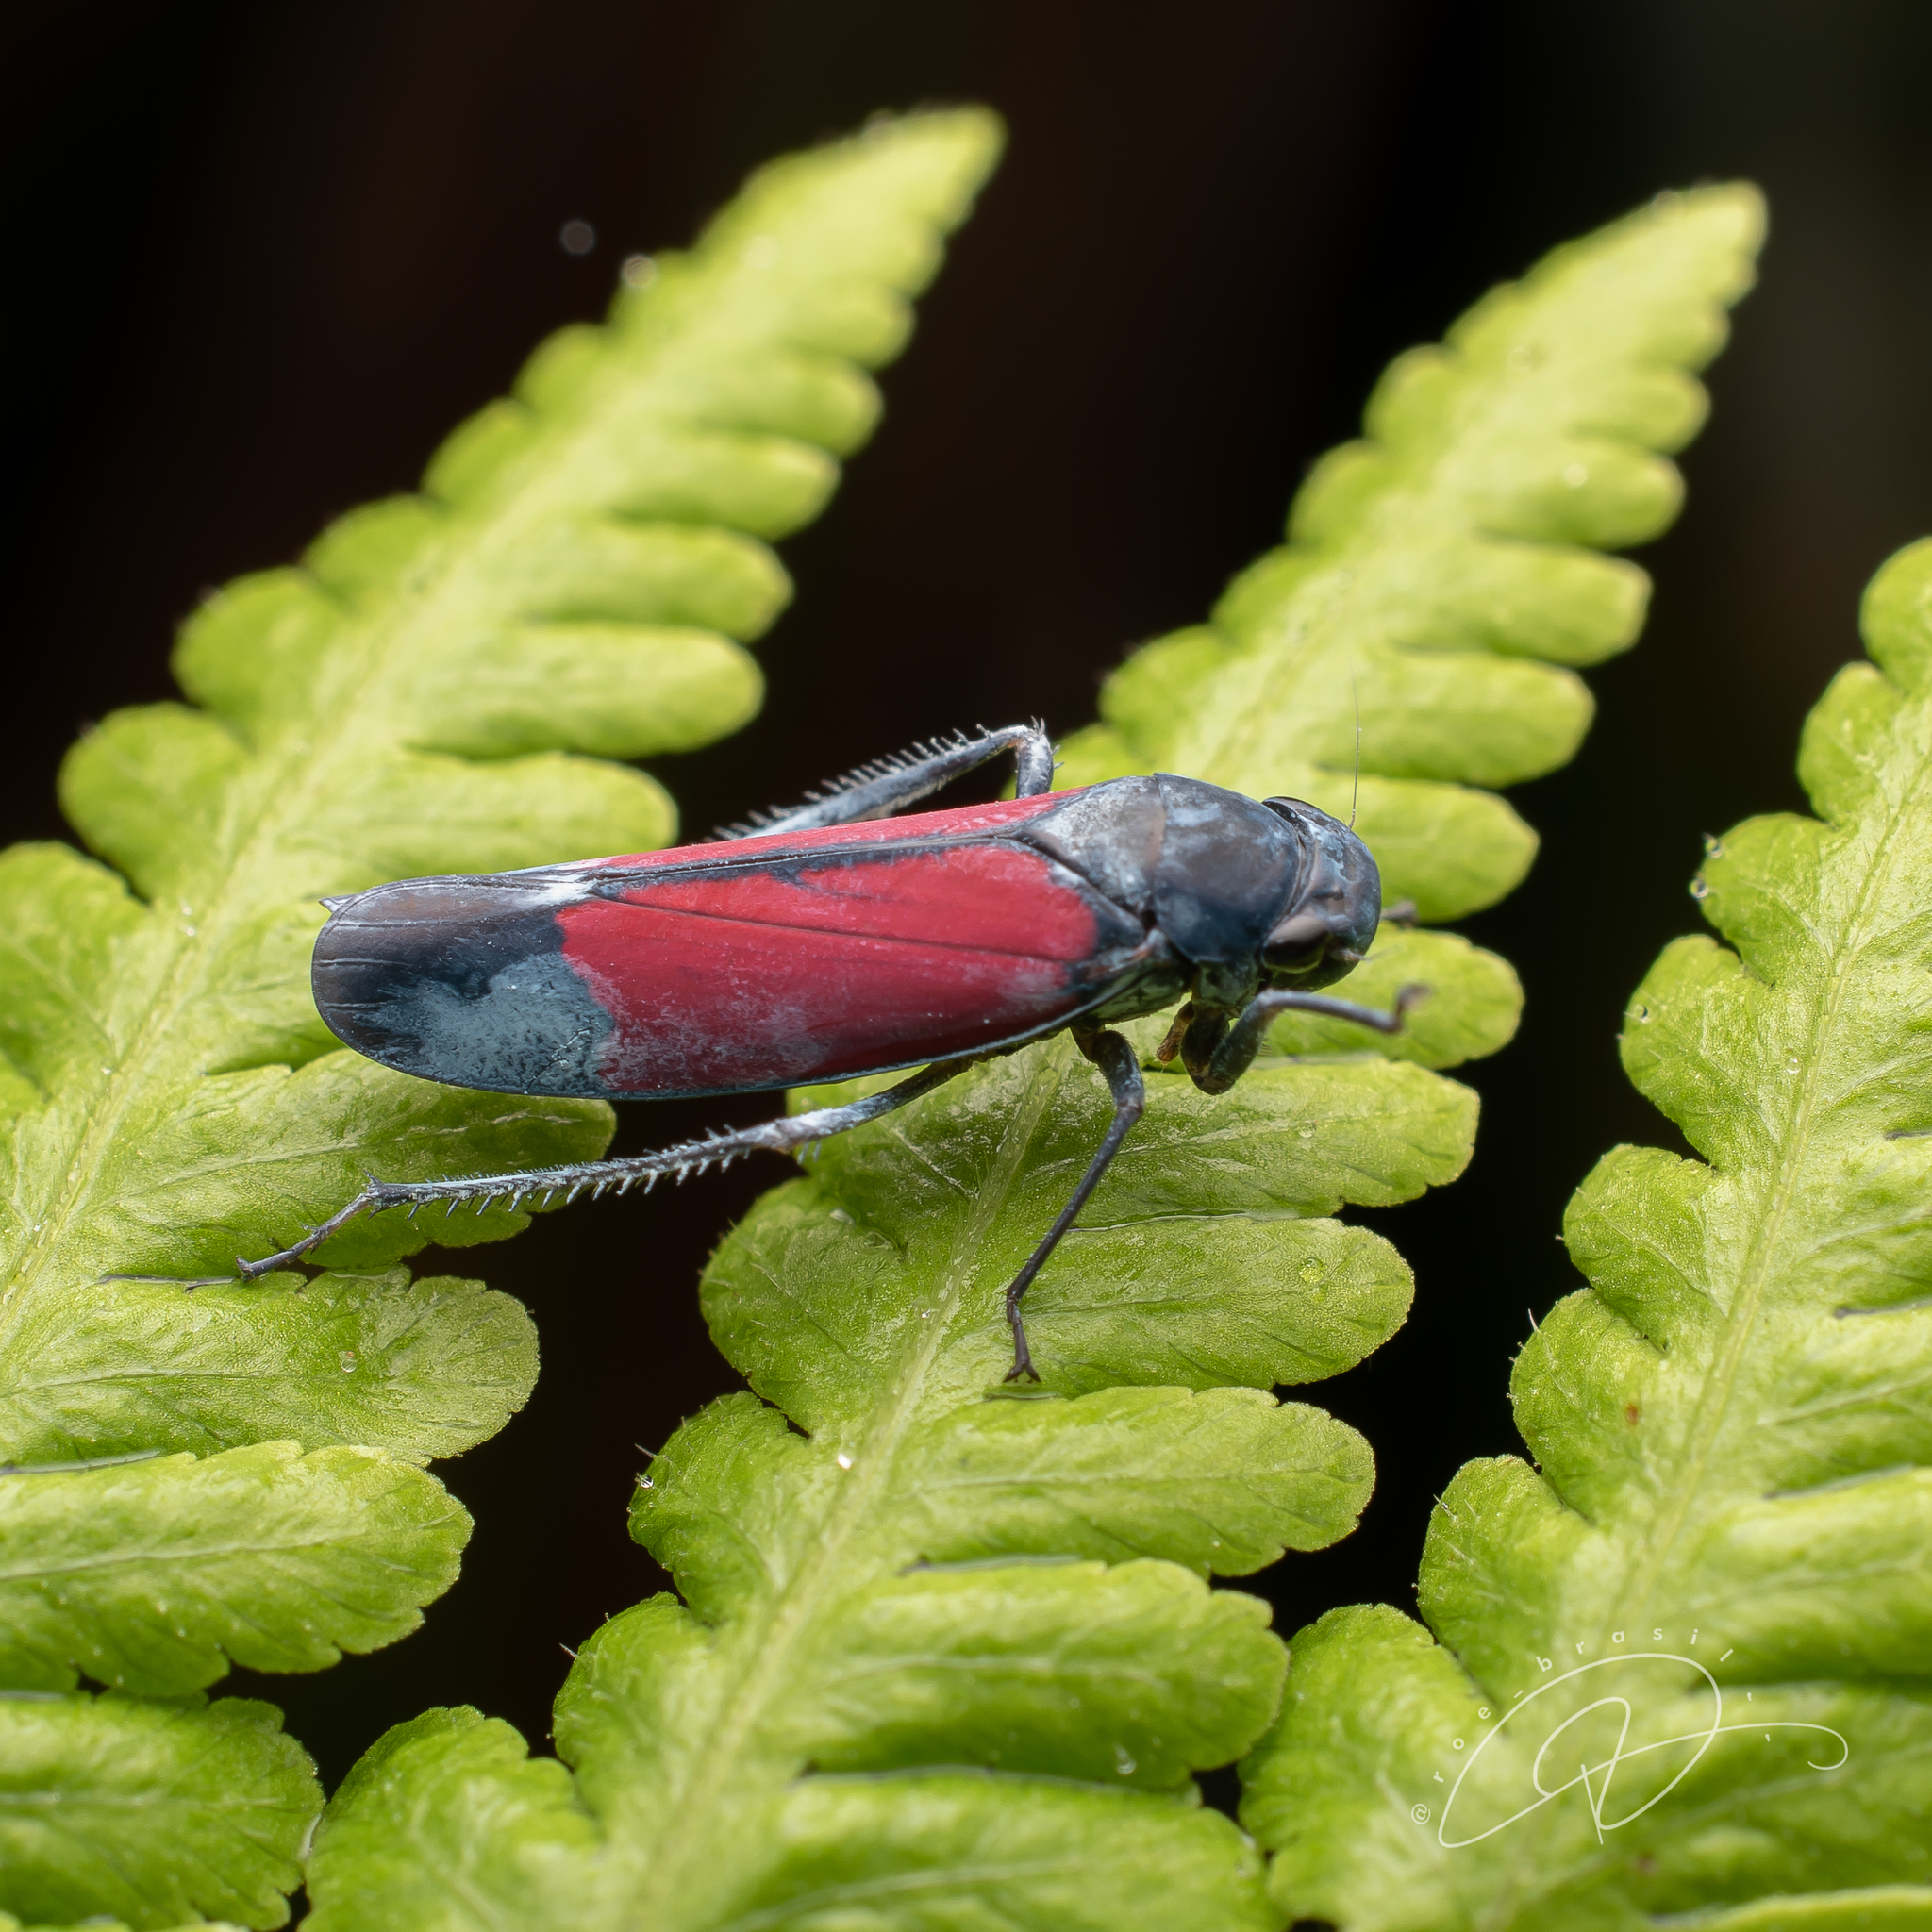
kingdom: Animalia
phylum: Arthropoda
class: Insecta
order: Hemiptera
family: Cicadellidae
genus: Cardioscarta
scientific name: Cardioscarta flavifrons
